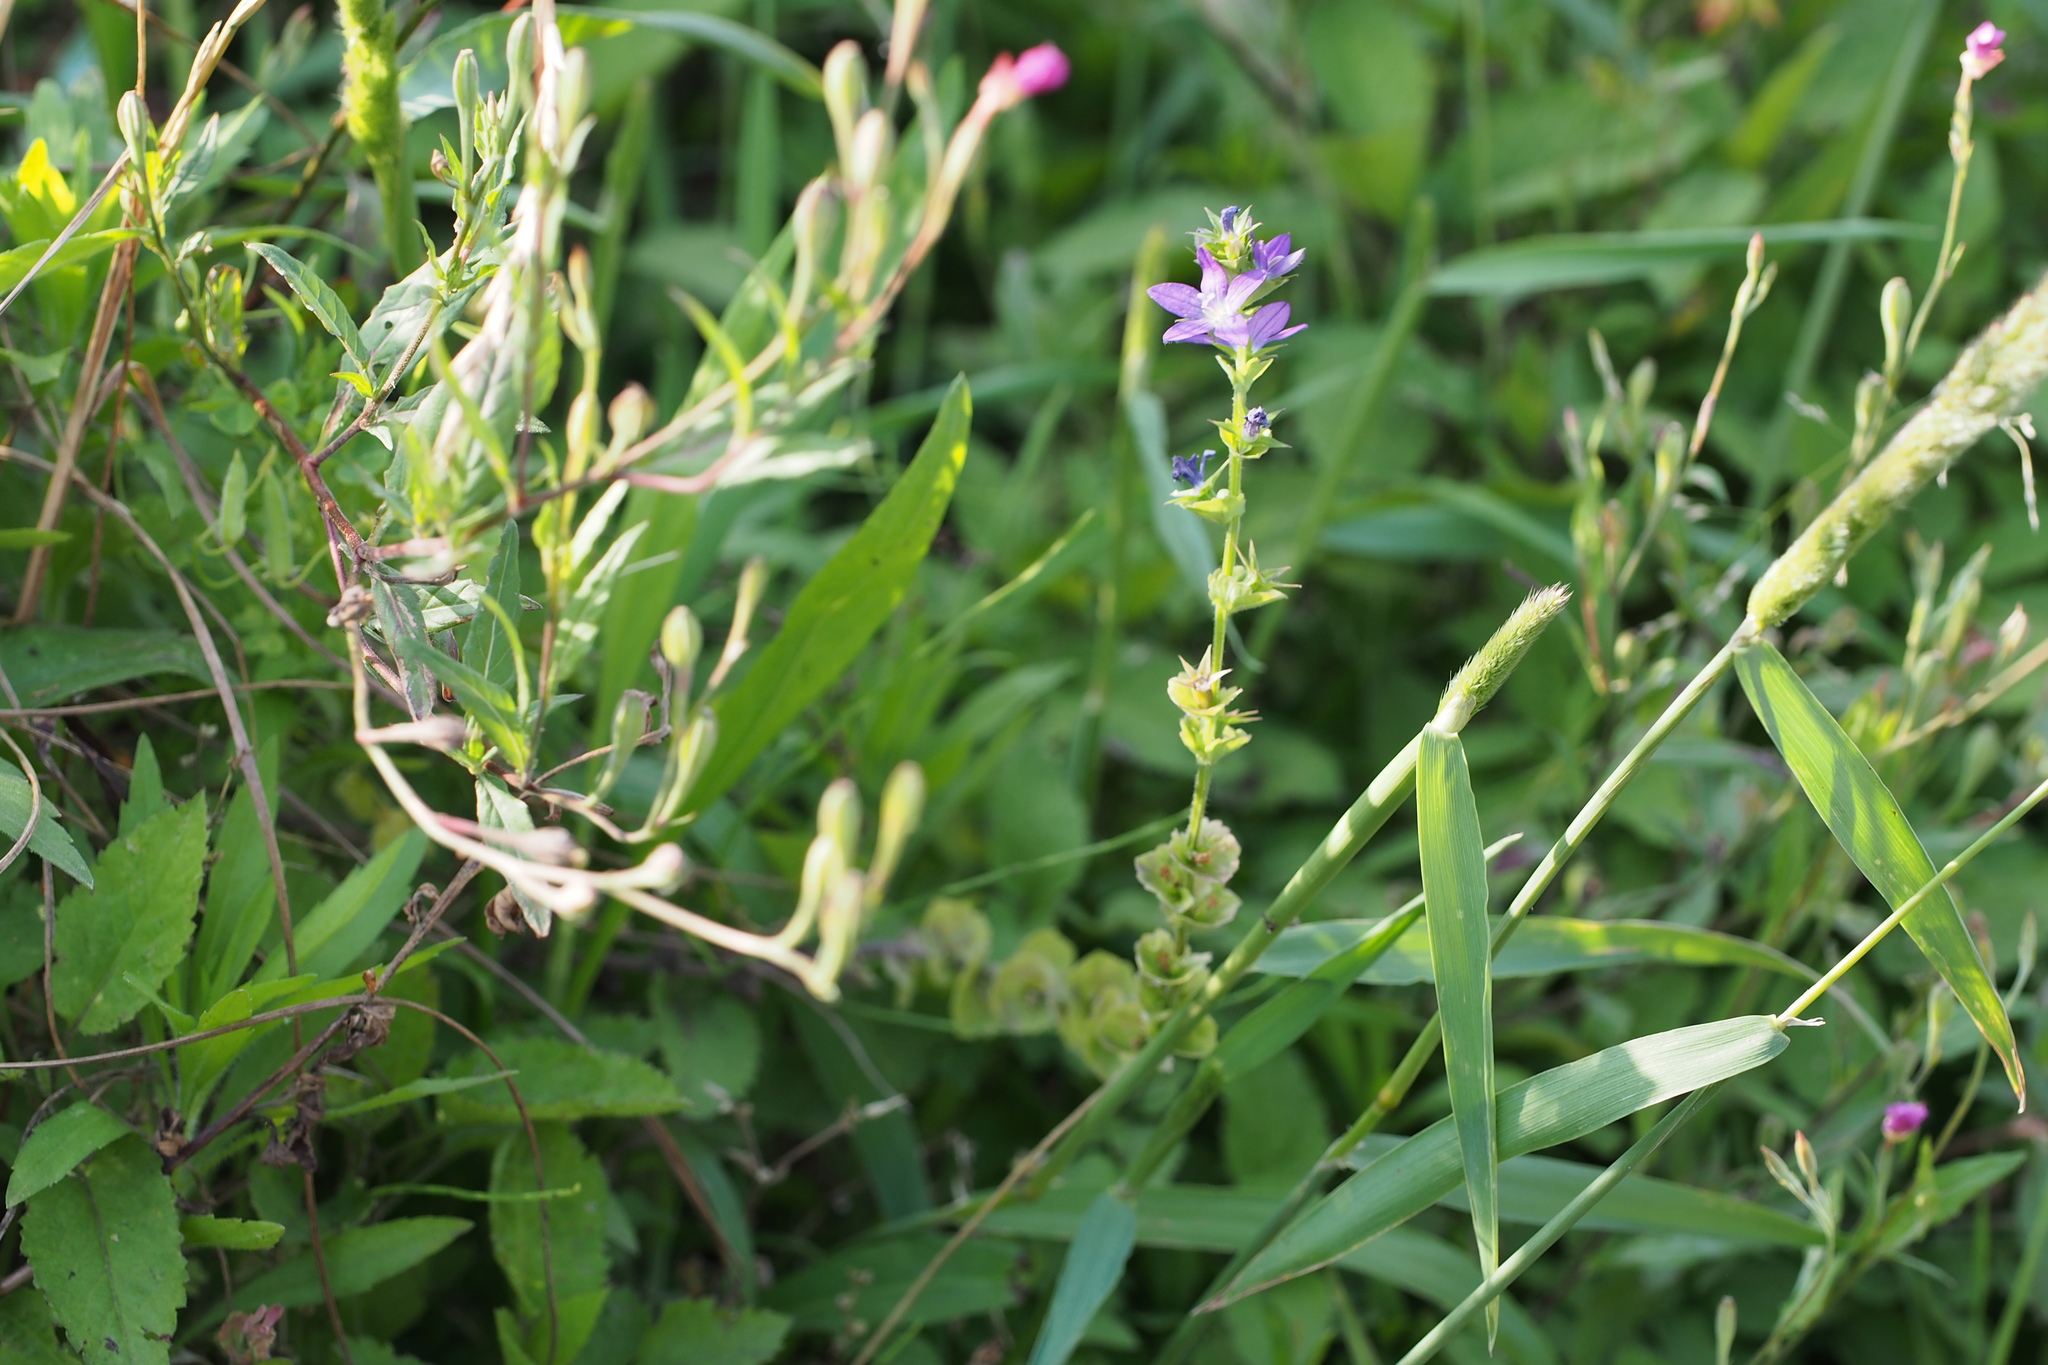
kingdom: Plantae
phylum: Tracheophyta
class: Magnoliopsida
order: Asterales
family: Campanulaceae
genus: Triodanis
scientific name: Triodanis perfoliata
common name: Clasping venus' looking-glass
